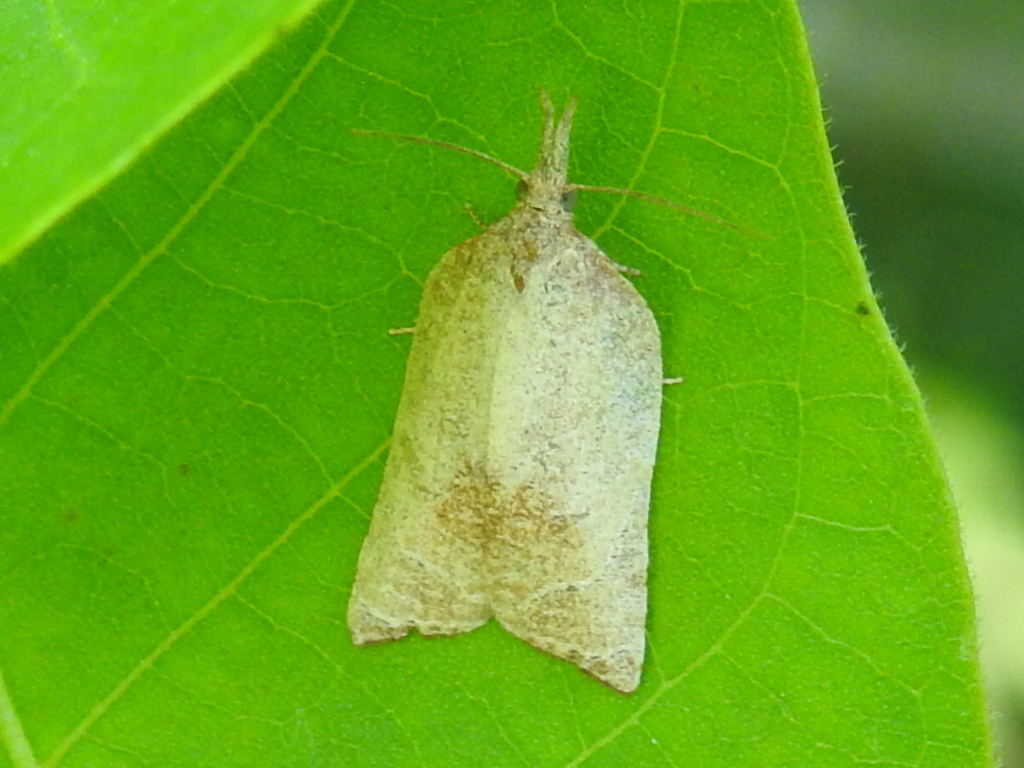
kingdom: Animalia
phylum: Arthropoda
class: Insecta
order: Lepidoptera
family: Tortricidae
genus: Platynota
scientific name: Platynota rostrana
